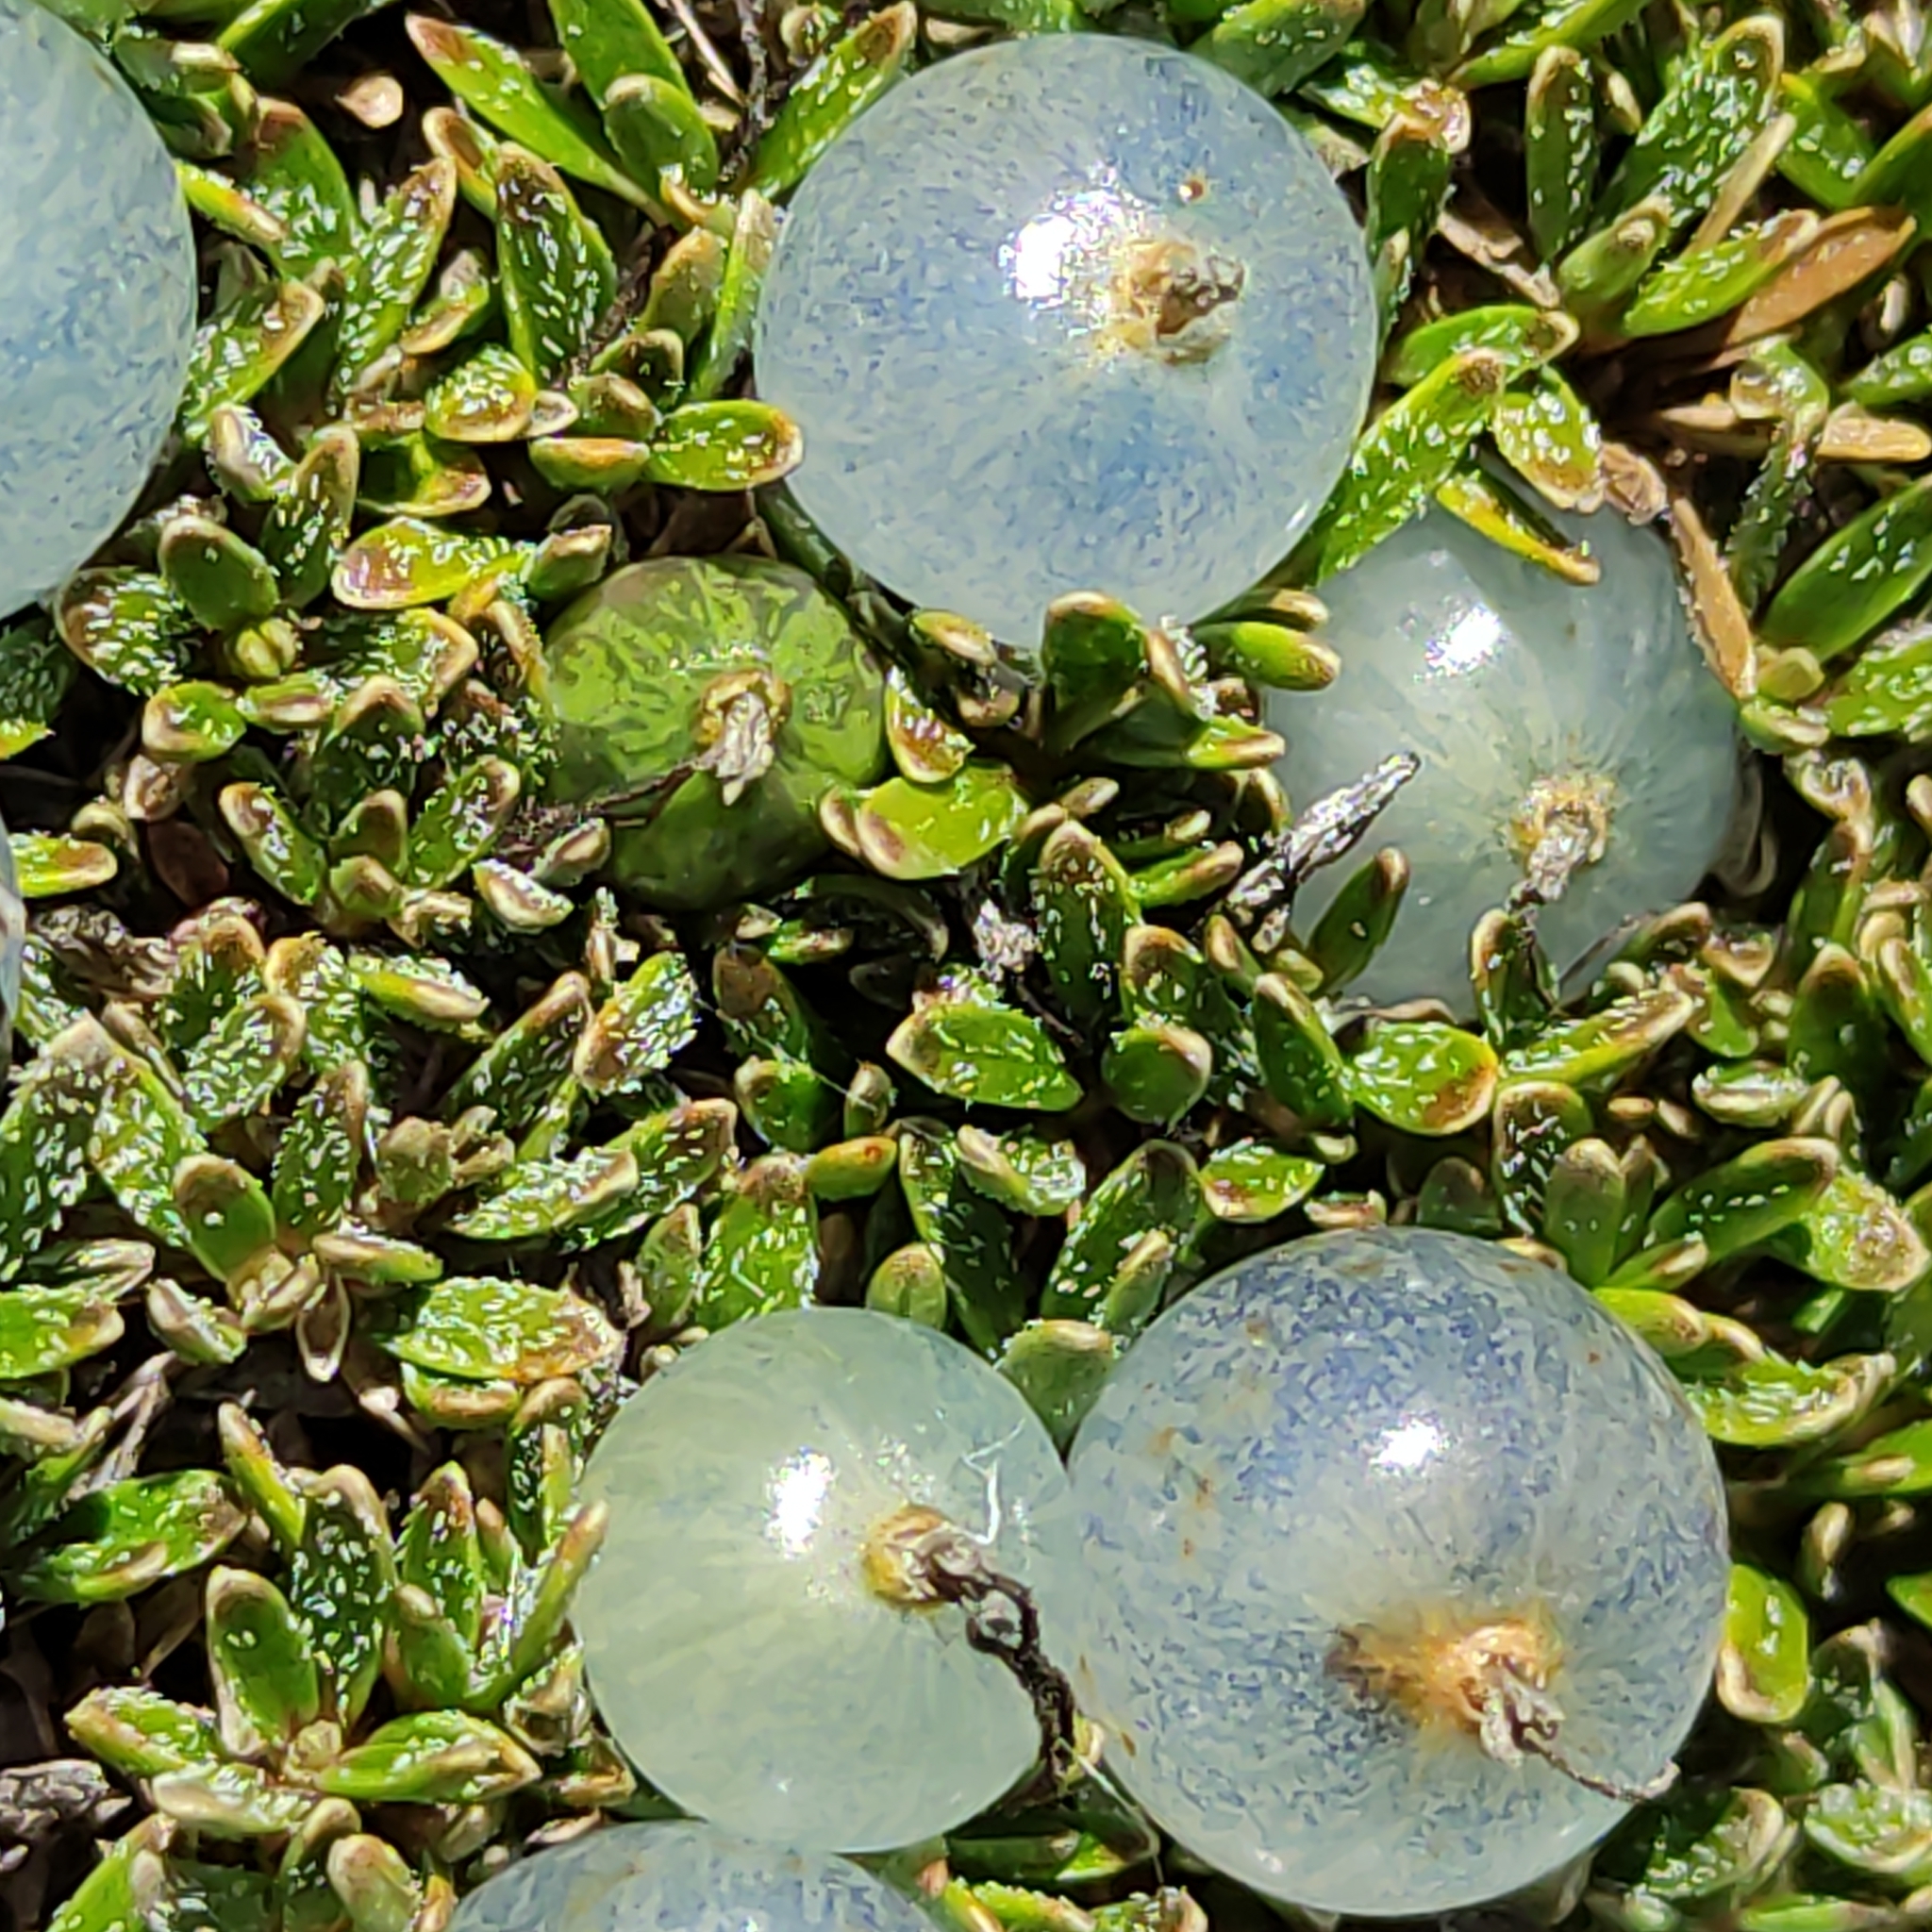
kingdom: Plantae
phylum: Tracheophyta
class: Magnoliopsida
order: Gentianales
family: Rubiaceae
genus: Coprosma
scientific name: Coprosma petriei
